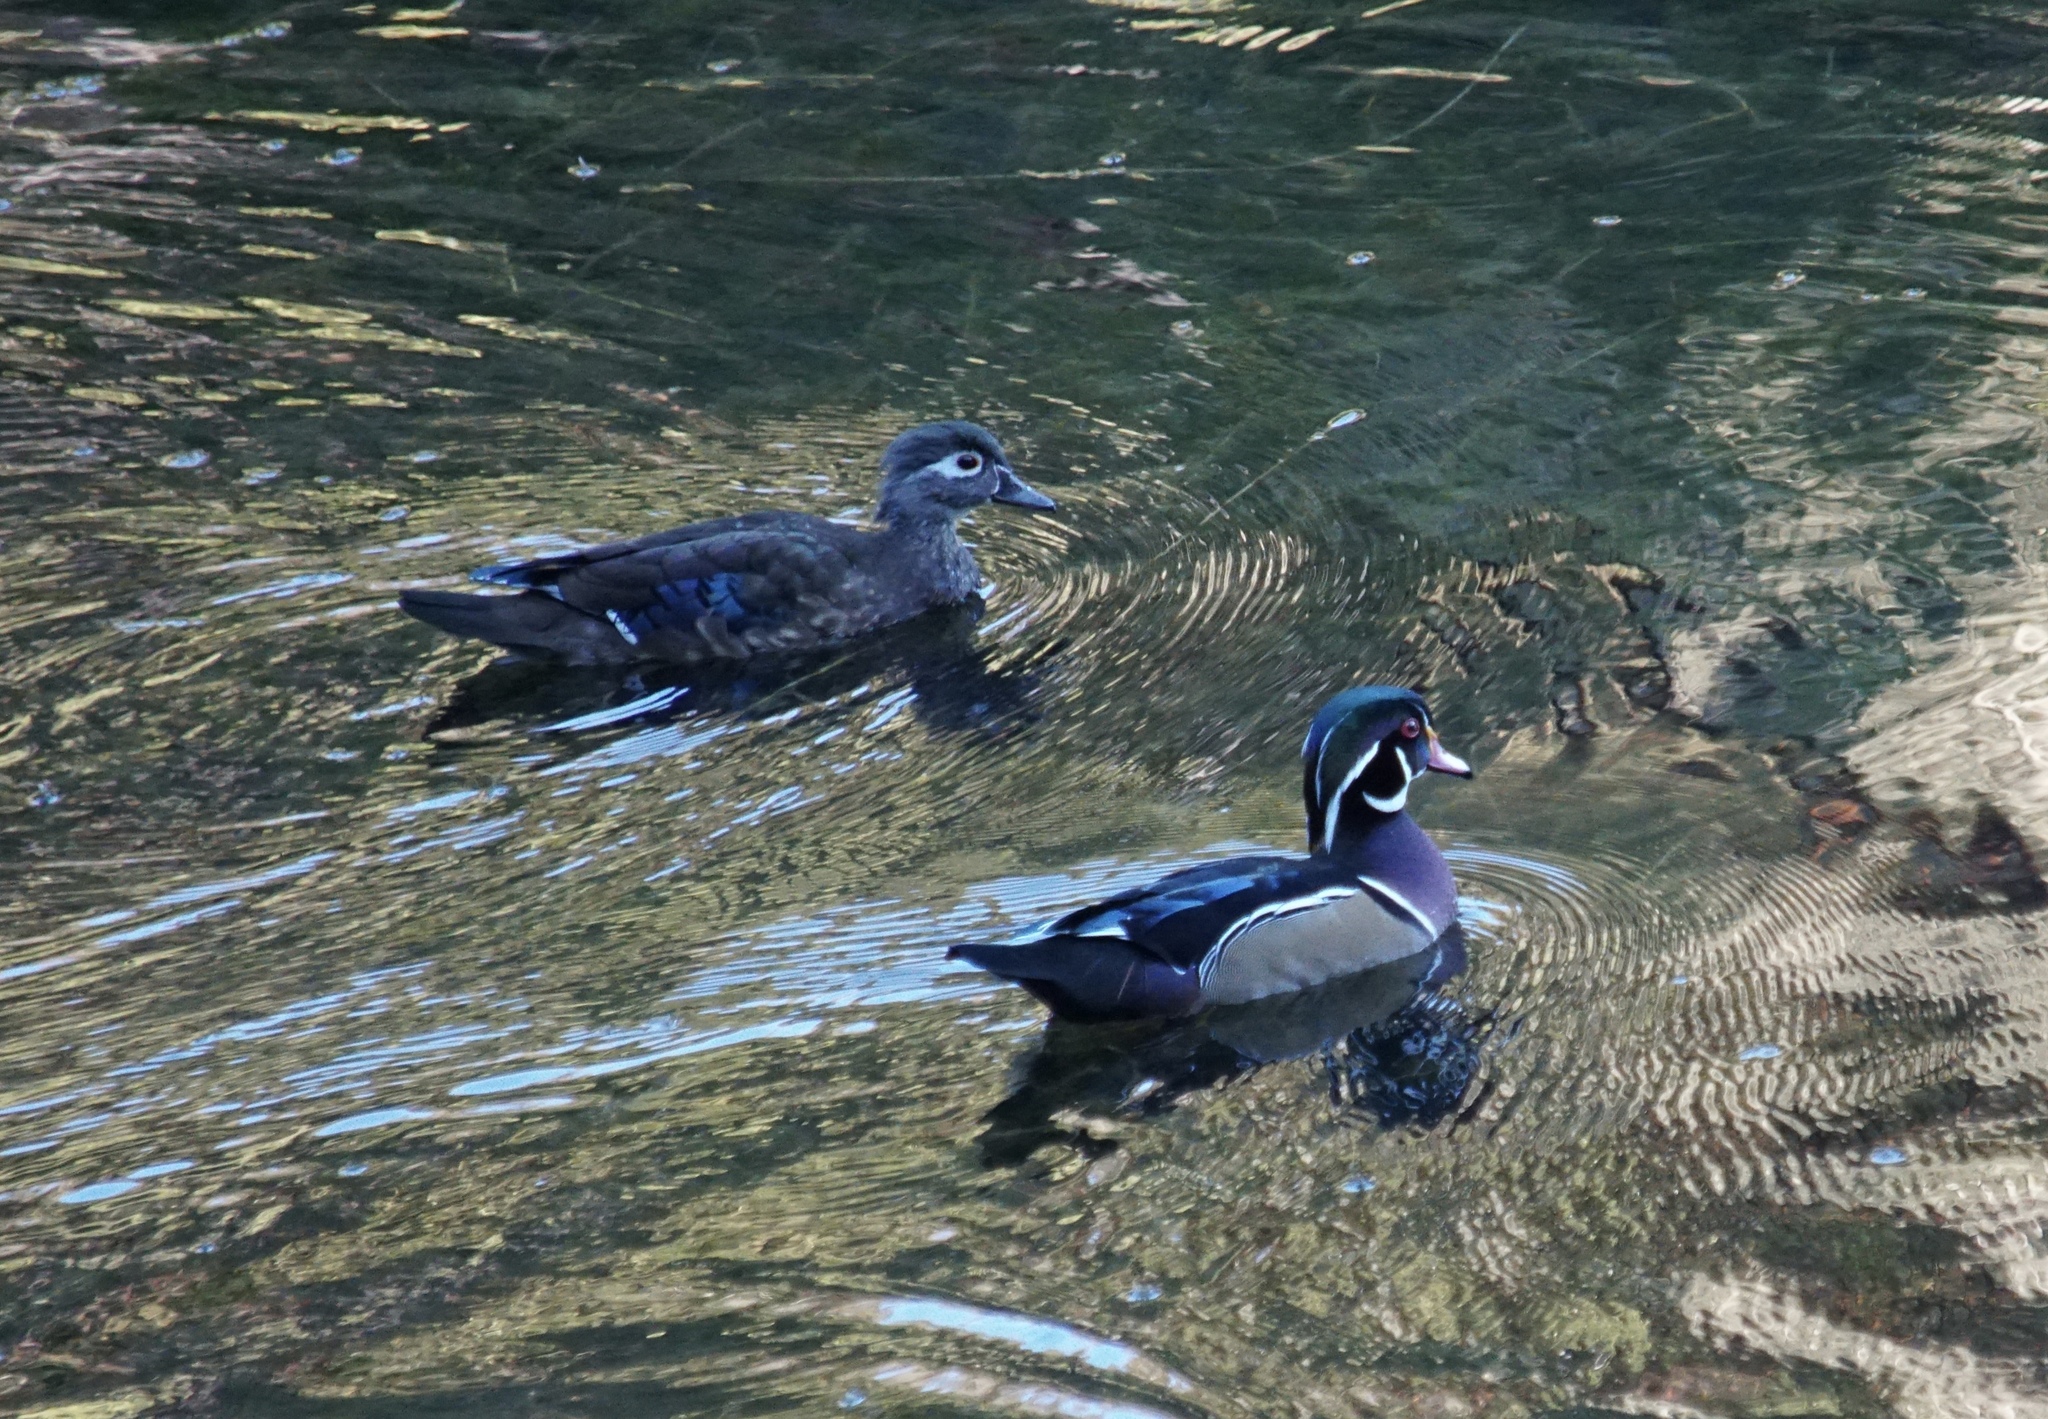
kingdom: Animalia
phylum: Chordata
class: Aves
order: Anseriformes
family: Anatidae
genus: Aix
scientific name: Aix sponsa
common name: Wood duck
